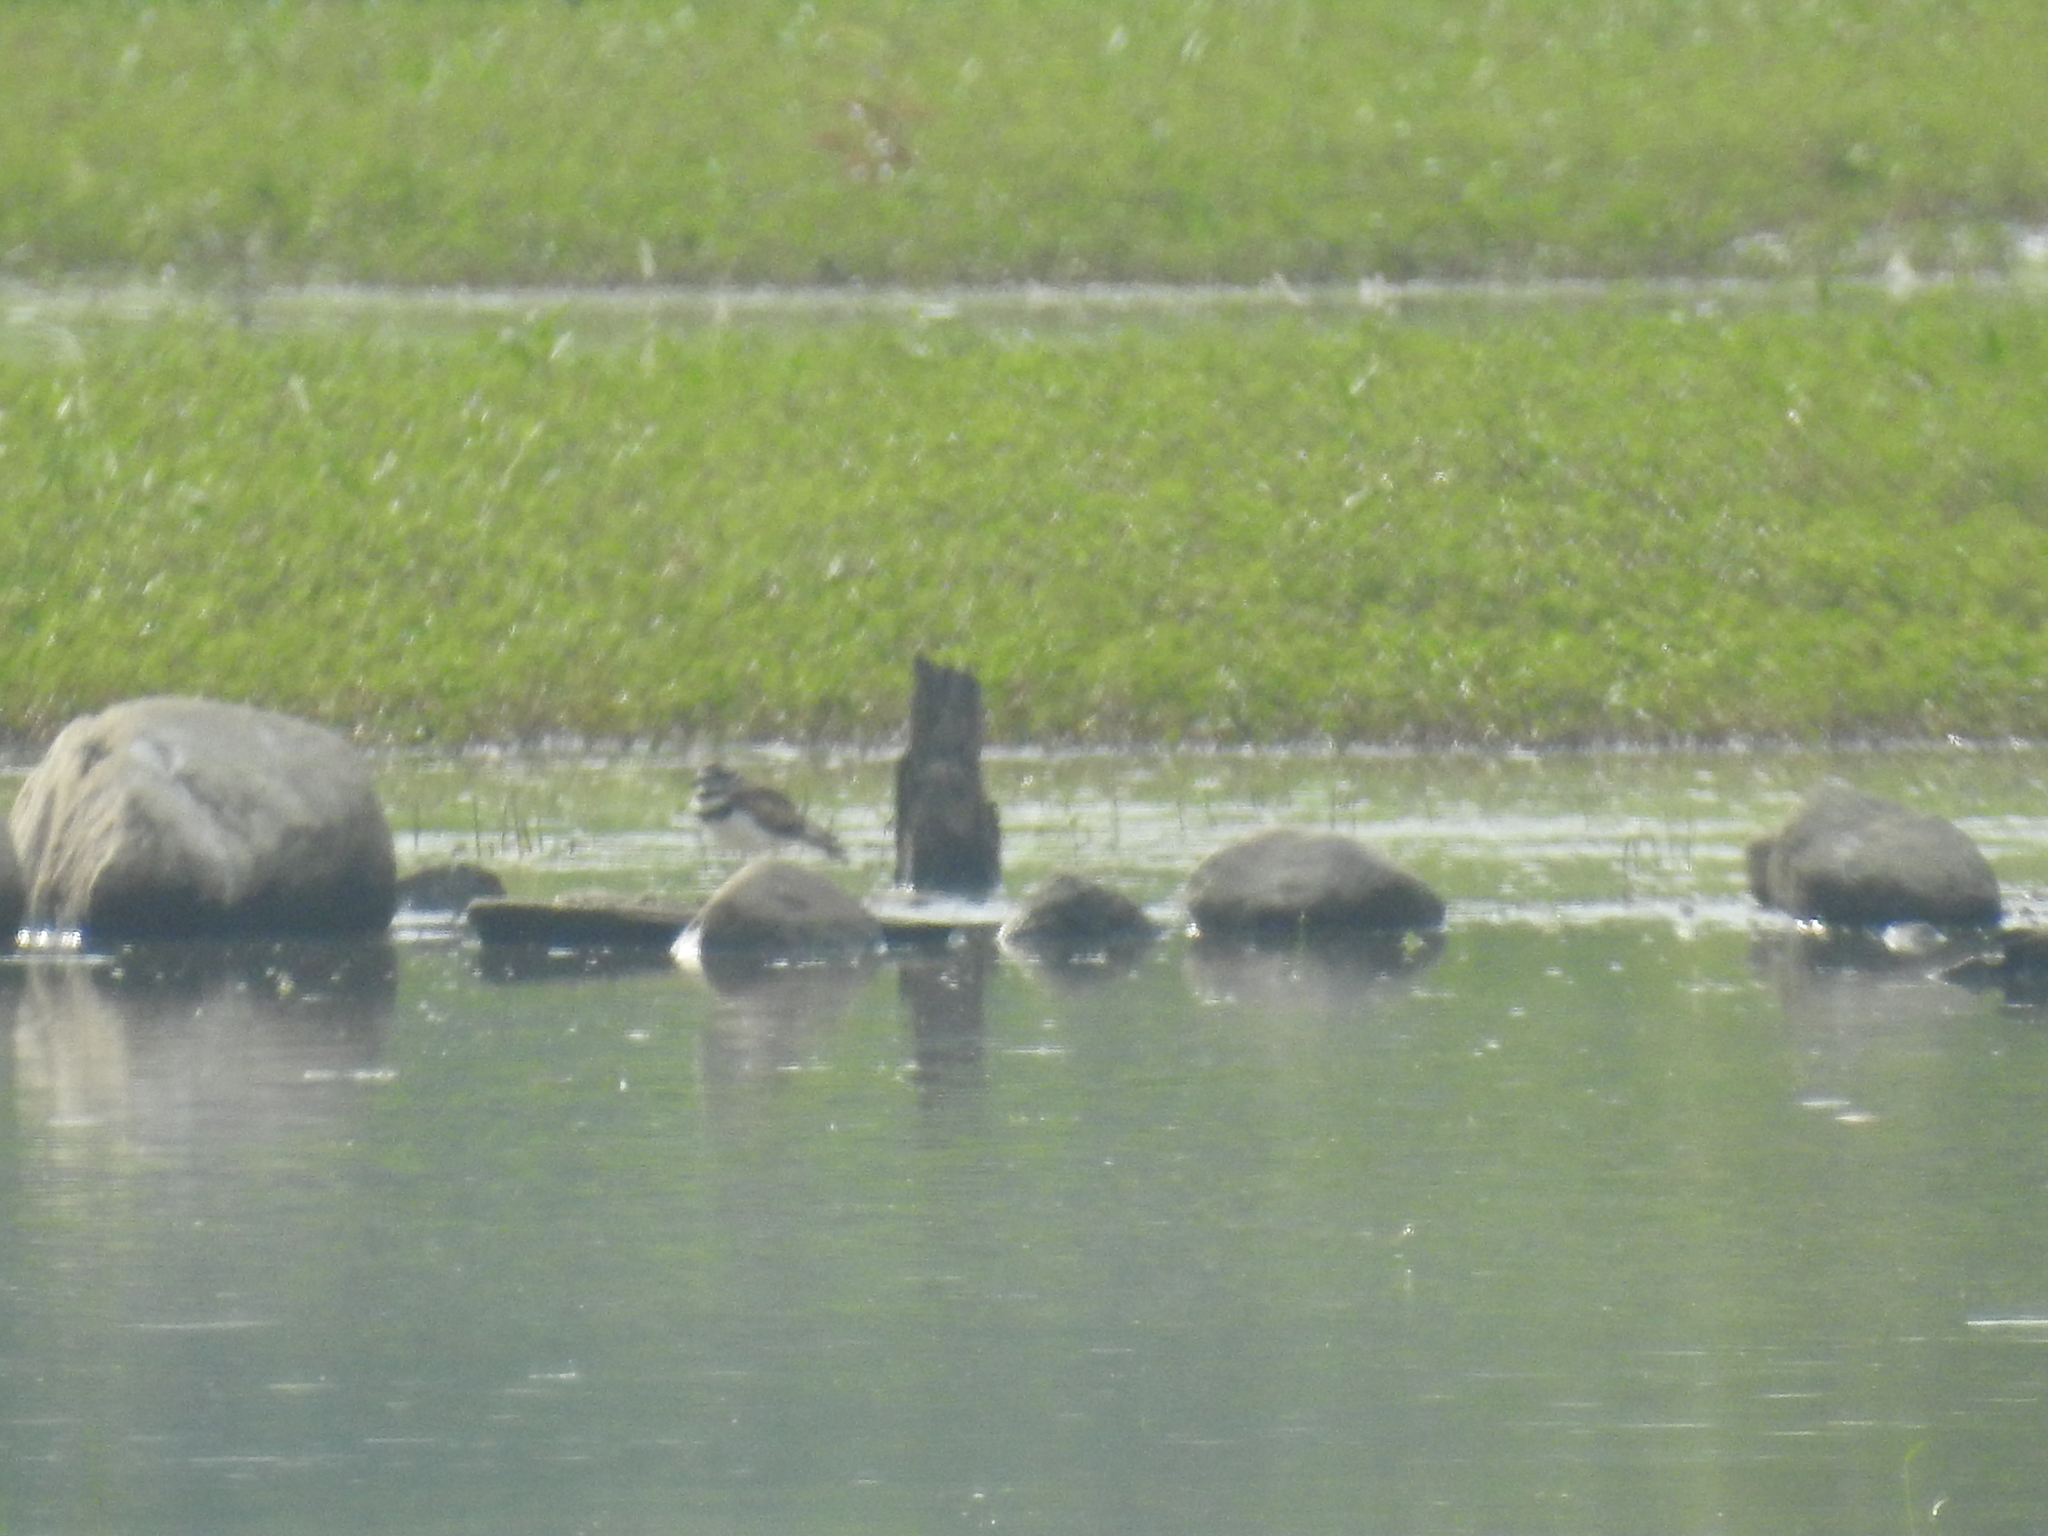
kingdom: Animalia
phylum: Chordata
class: Aves
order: Charadriiformes
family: Charadriidae
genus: Charadrius
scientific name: Charadrius vociferus
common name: Killdeer
